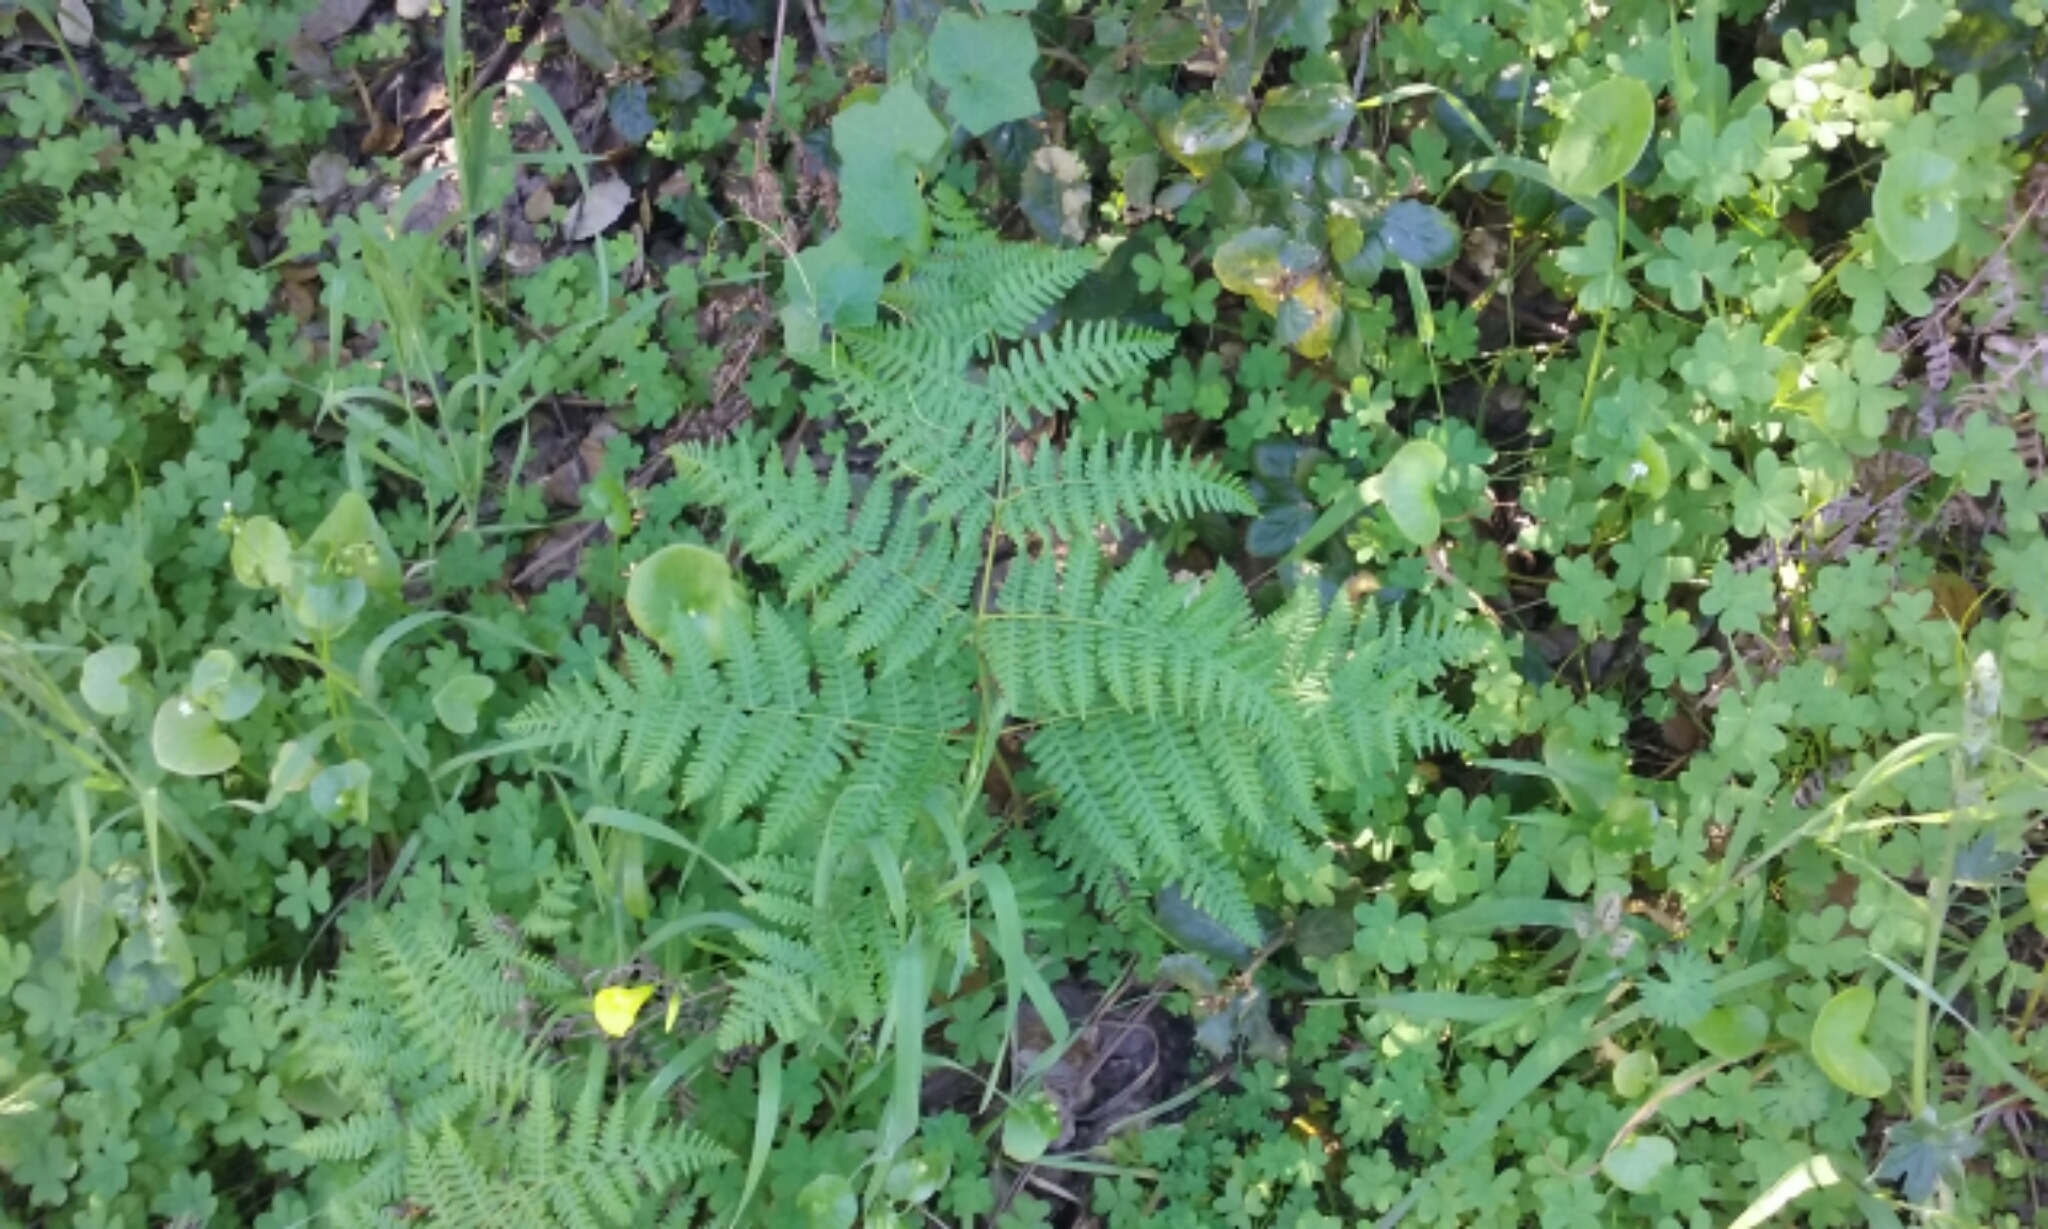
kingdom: Plantae
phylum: Tracheophyta
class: Polypodiopsida
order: Polypodiales
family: Dennstaedtiaceae
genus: Pteridium
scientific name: Pteridium aquilinum
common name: Bracken
